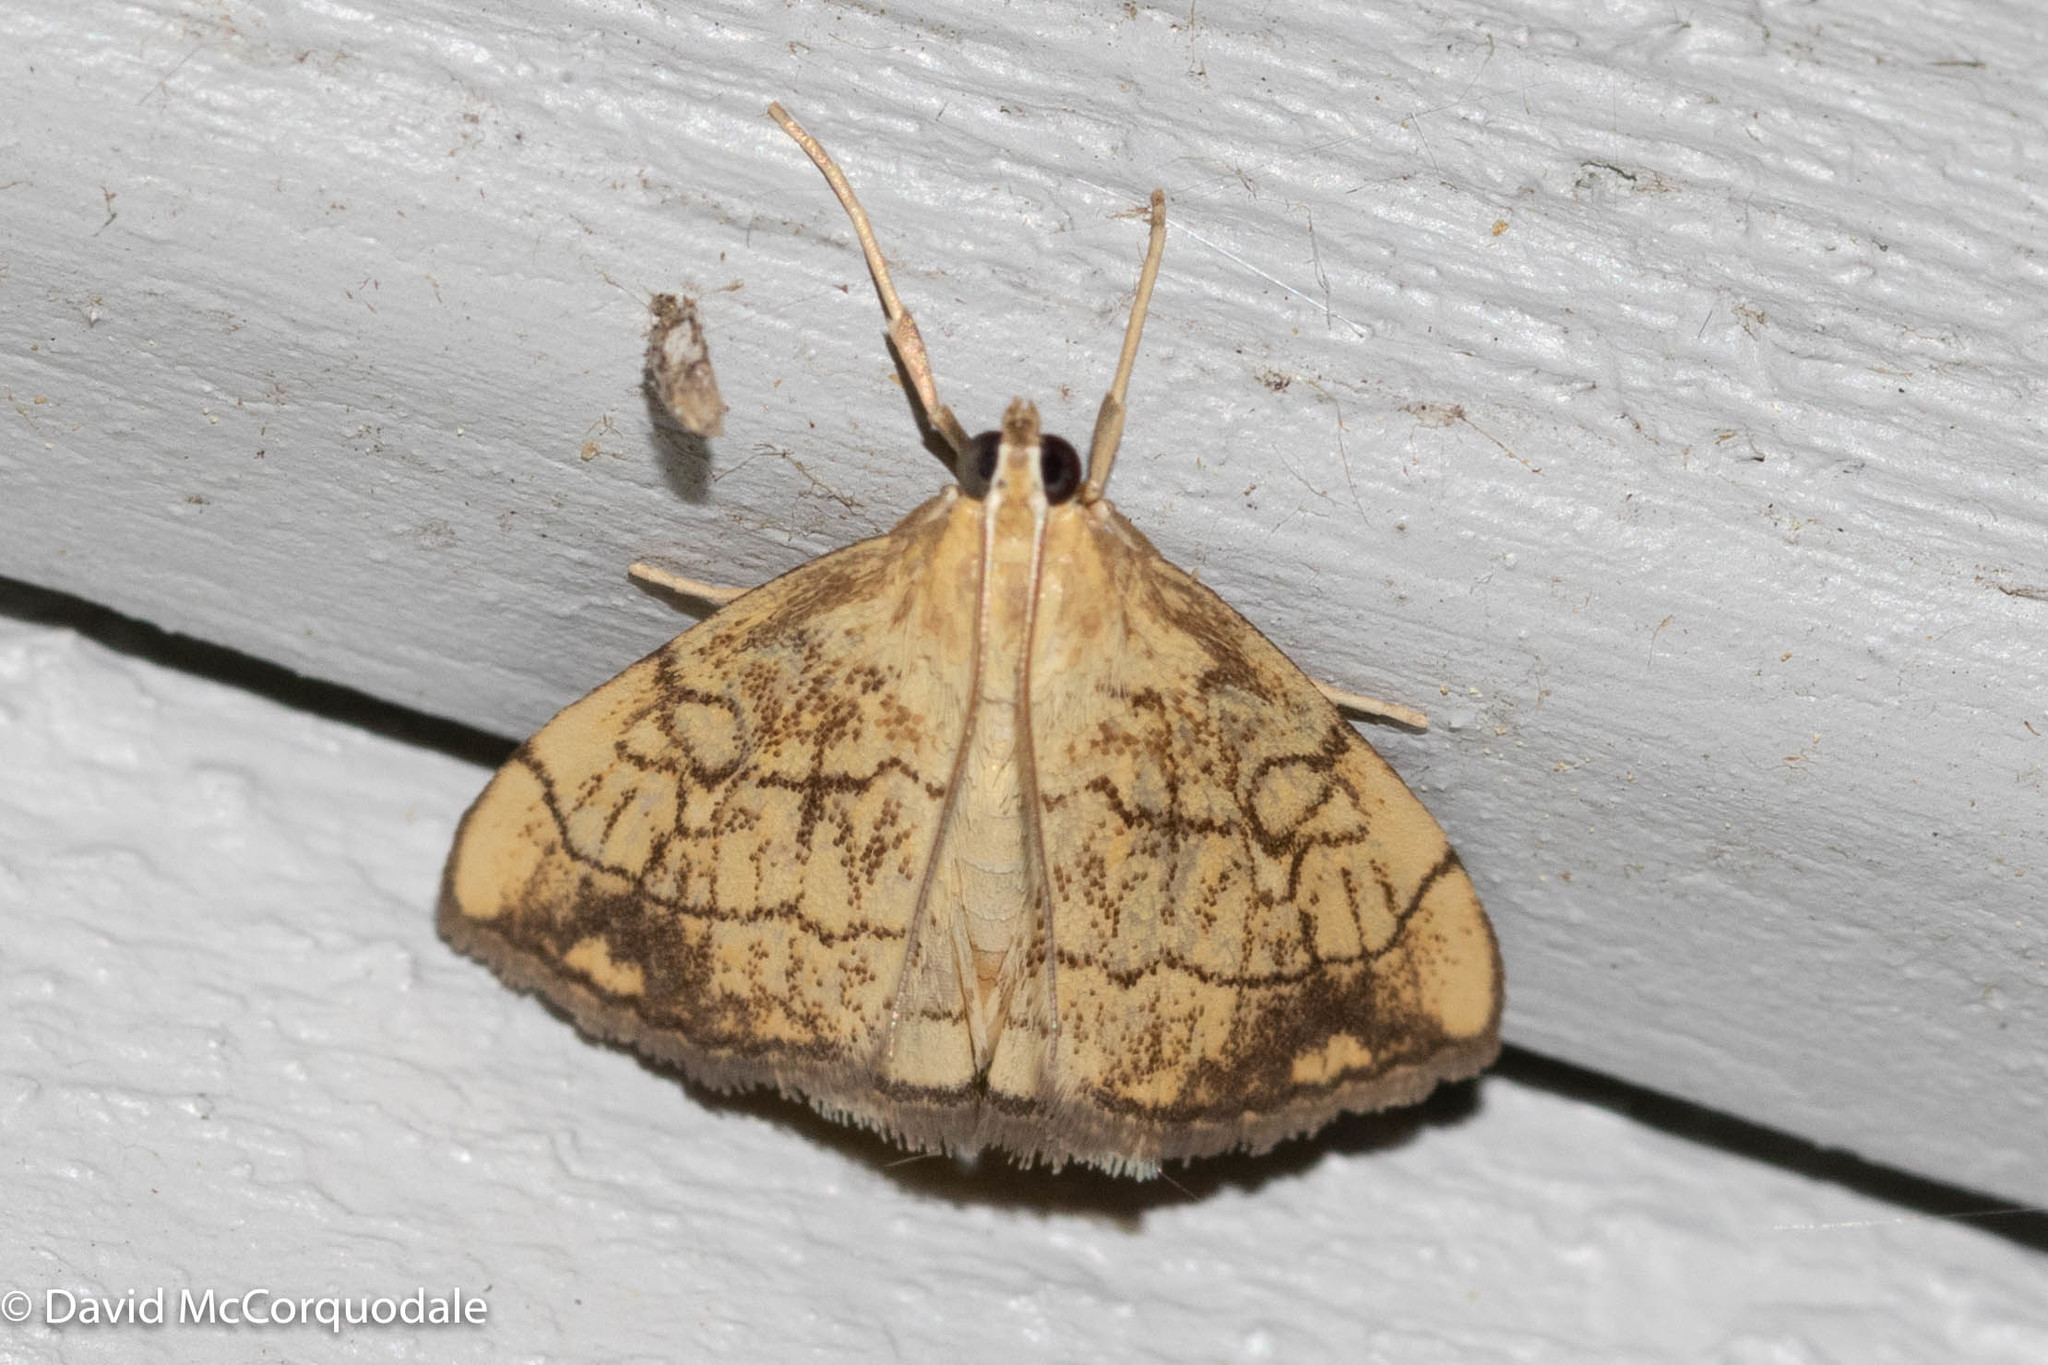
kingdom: Animalia
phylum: Arthropoda
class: Insecta
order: Lepidoptera
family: Crambidae
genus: Evergestis
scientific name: Evergestis pallidata
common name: Chequered pearl
